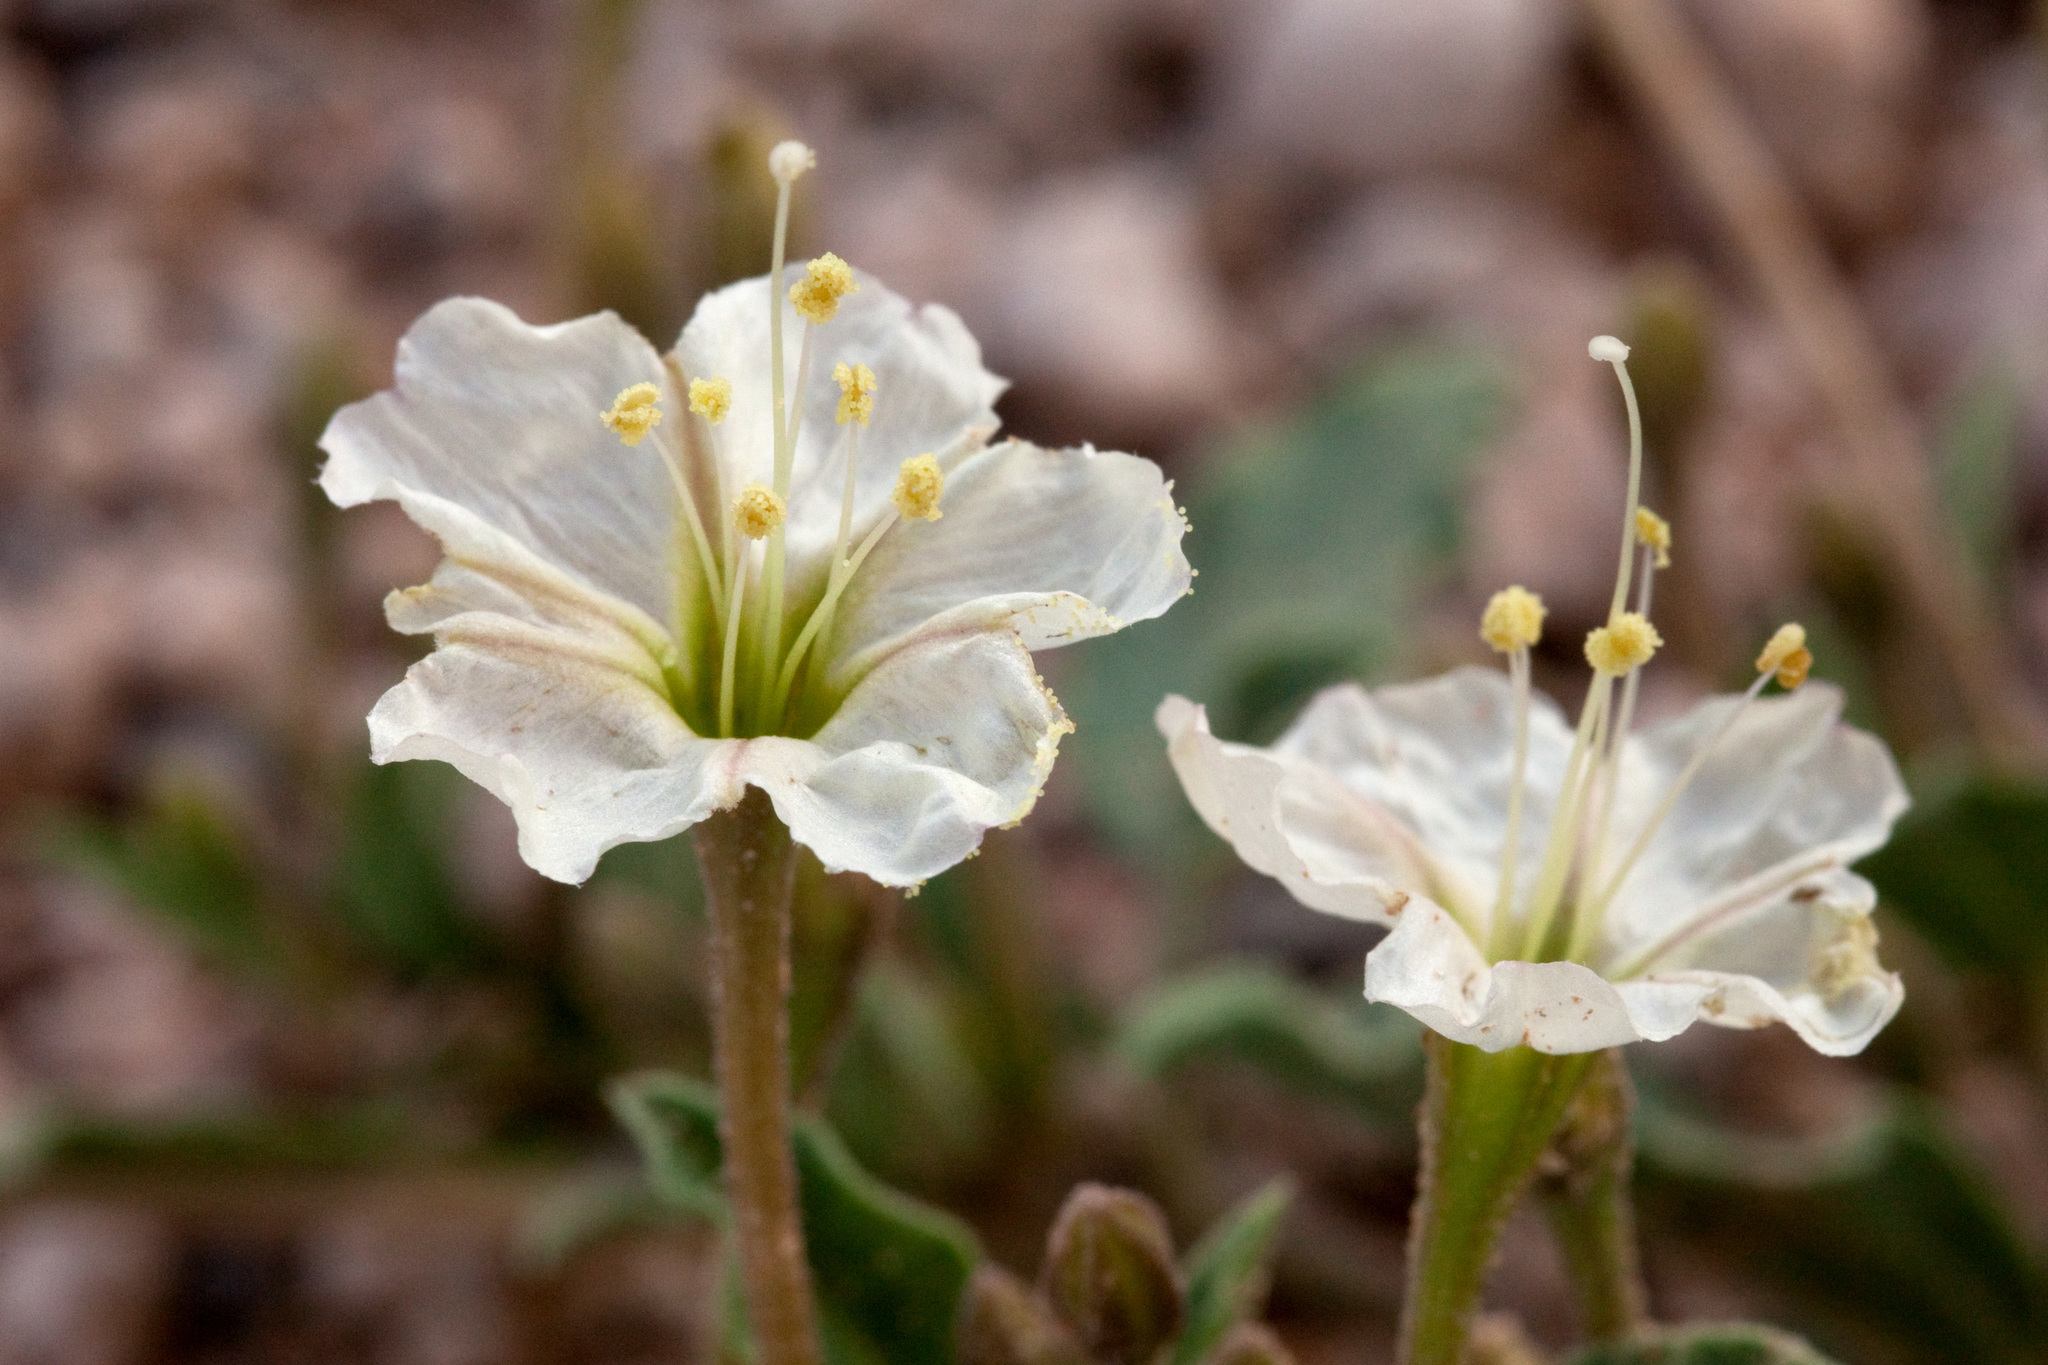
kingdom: Plantae
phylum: Tracheophyta
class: Magnoliopsida
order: Caryophyllales
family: Nyctaginaceae
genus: Acleisanthes
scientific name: Acleisanthes diffusa
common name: Spreading moonpod
